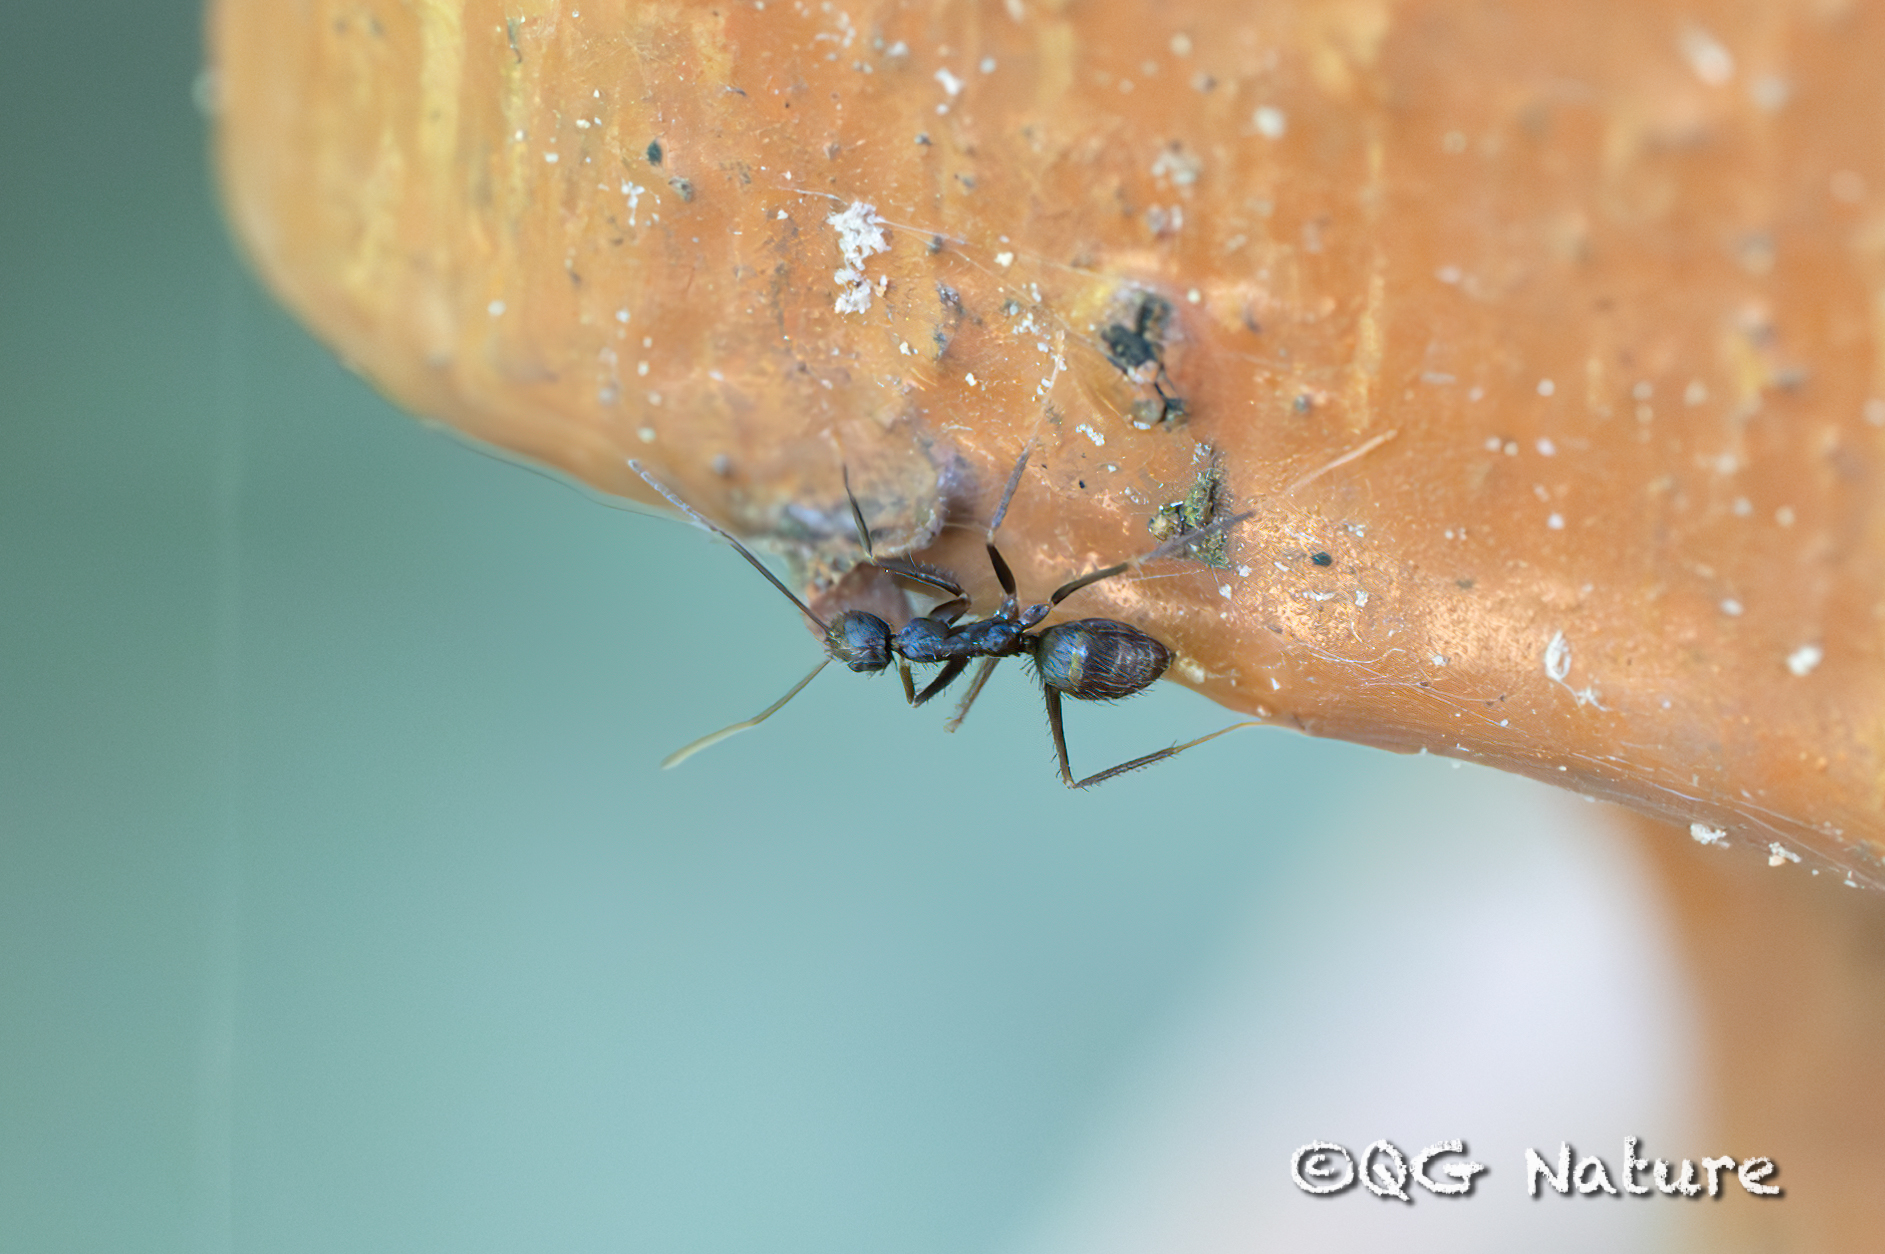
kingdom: Animalia
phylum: Arthropoda
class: Insecta
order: Hymenoptera
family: Formicidae
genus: Paratrechina
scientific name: Paratrechina longicornis
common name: Longhorned crazy ant
